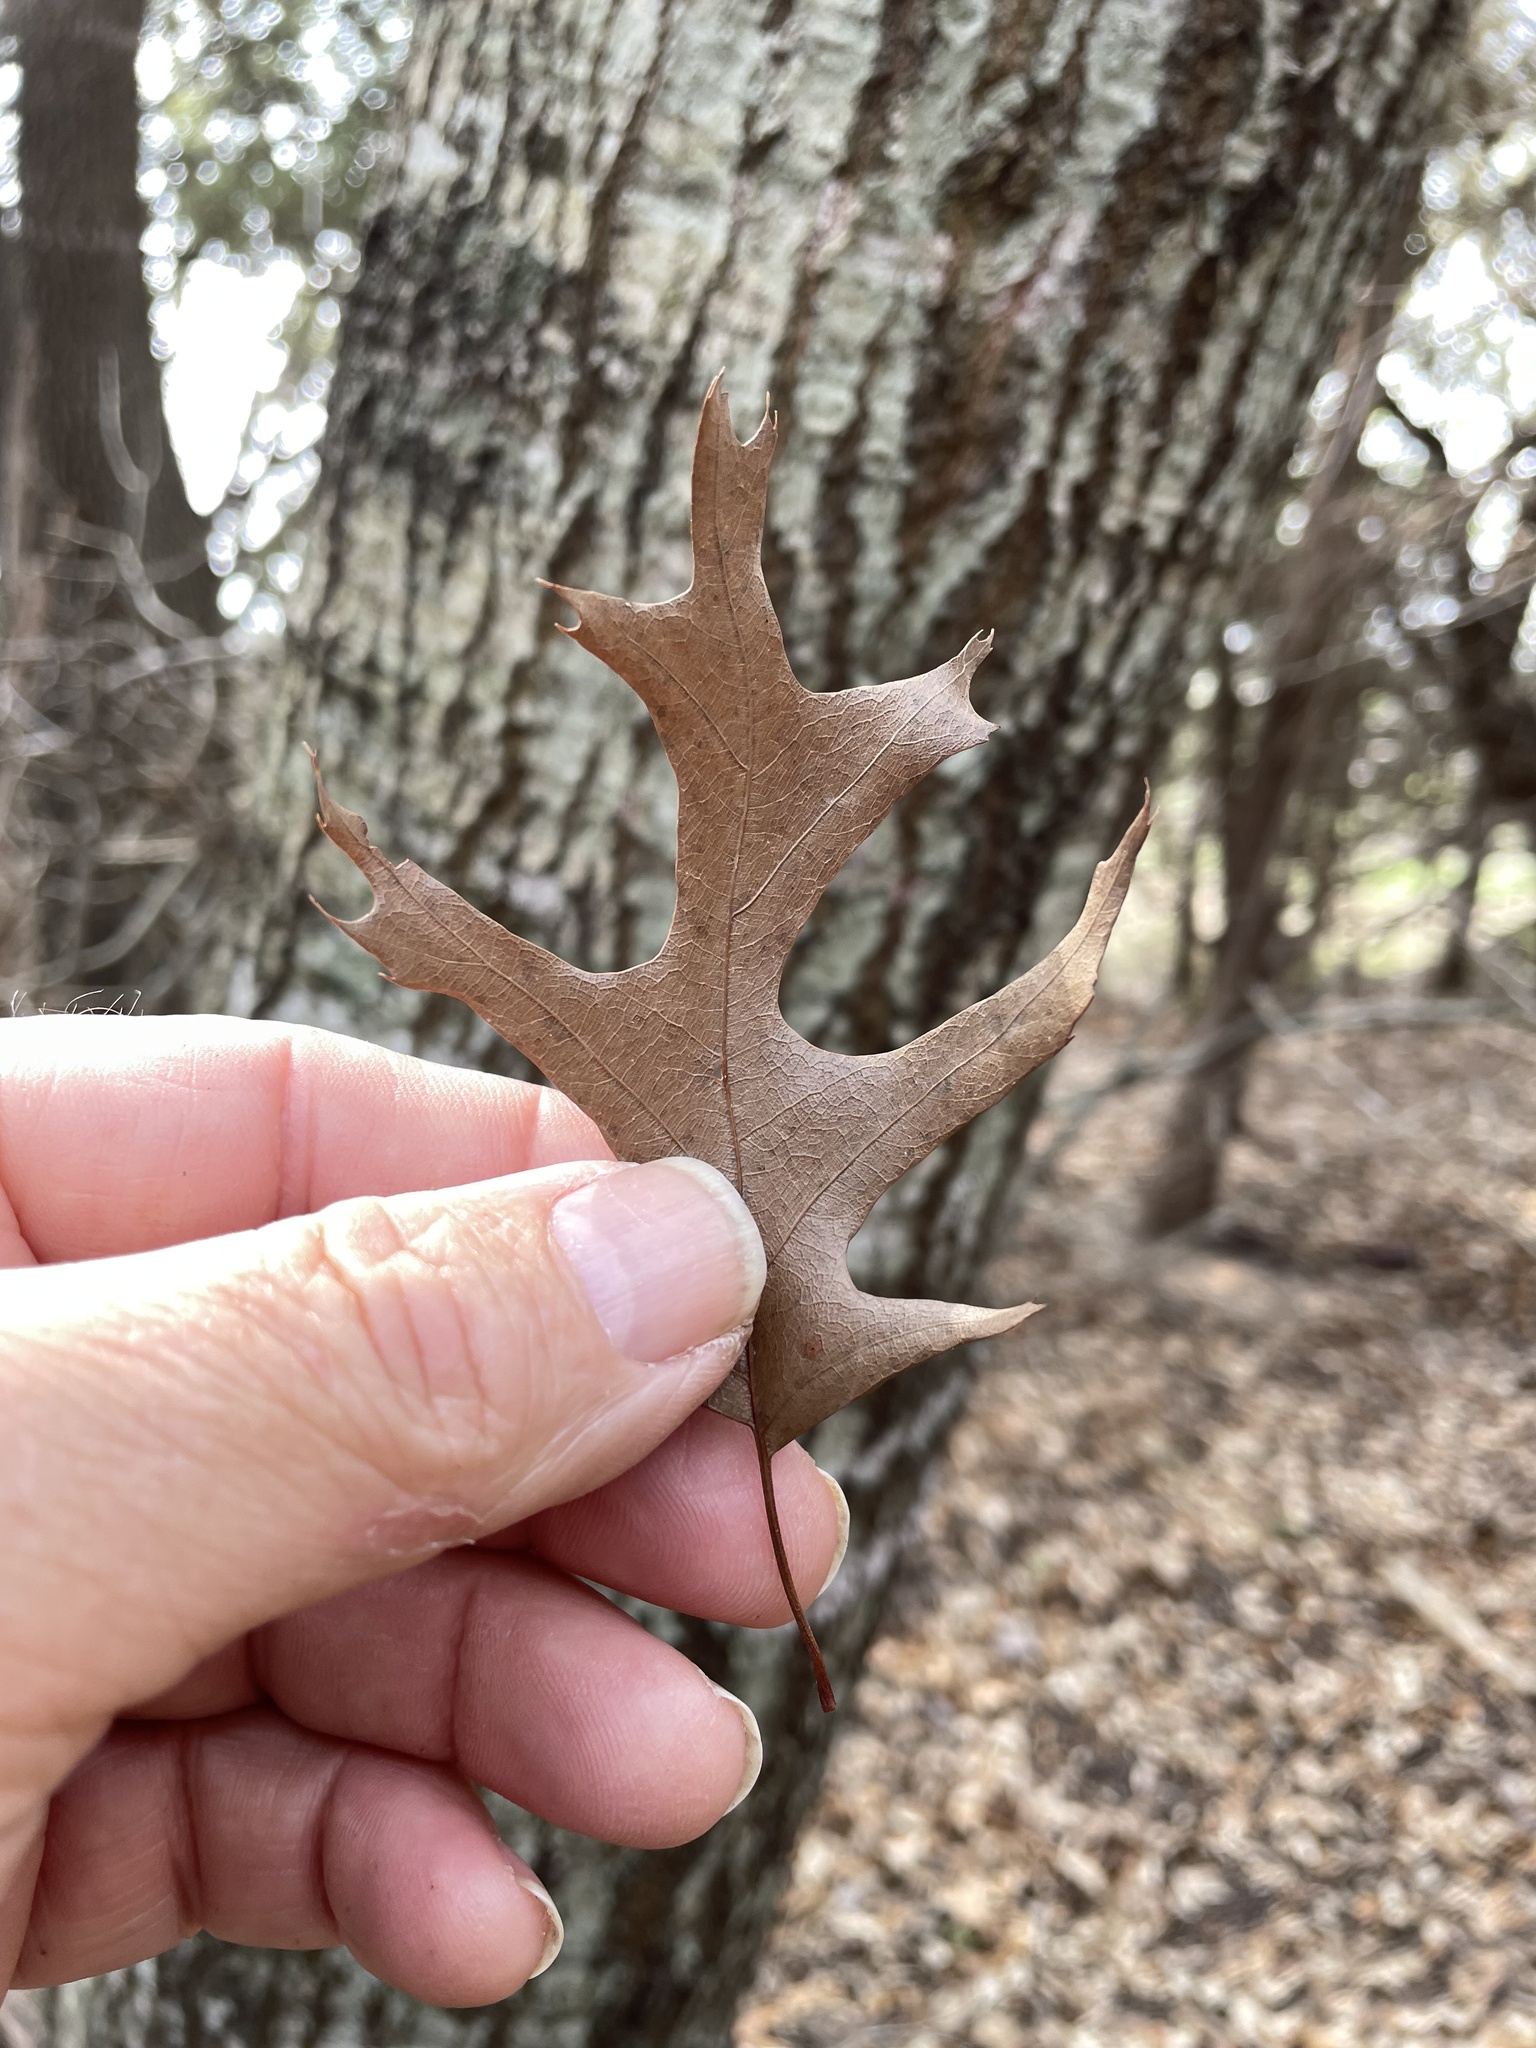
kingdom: Plantae
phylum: Tracheophyta
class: Magnoliopsida
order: Fagales
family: Fagaceae
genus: Quercus
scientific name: Quercus buckleyi
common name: Buckley oak
